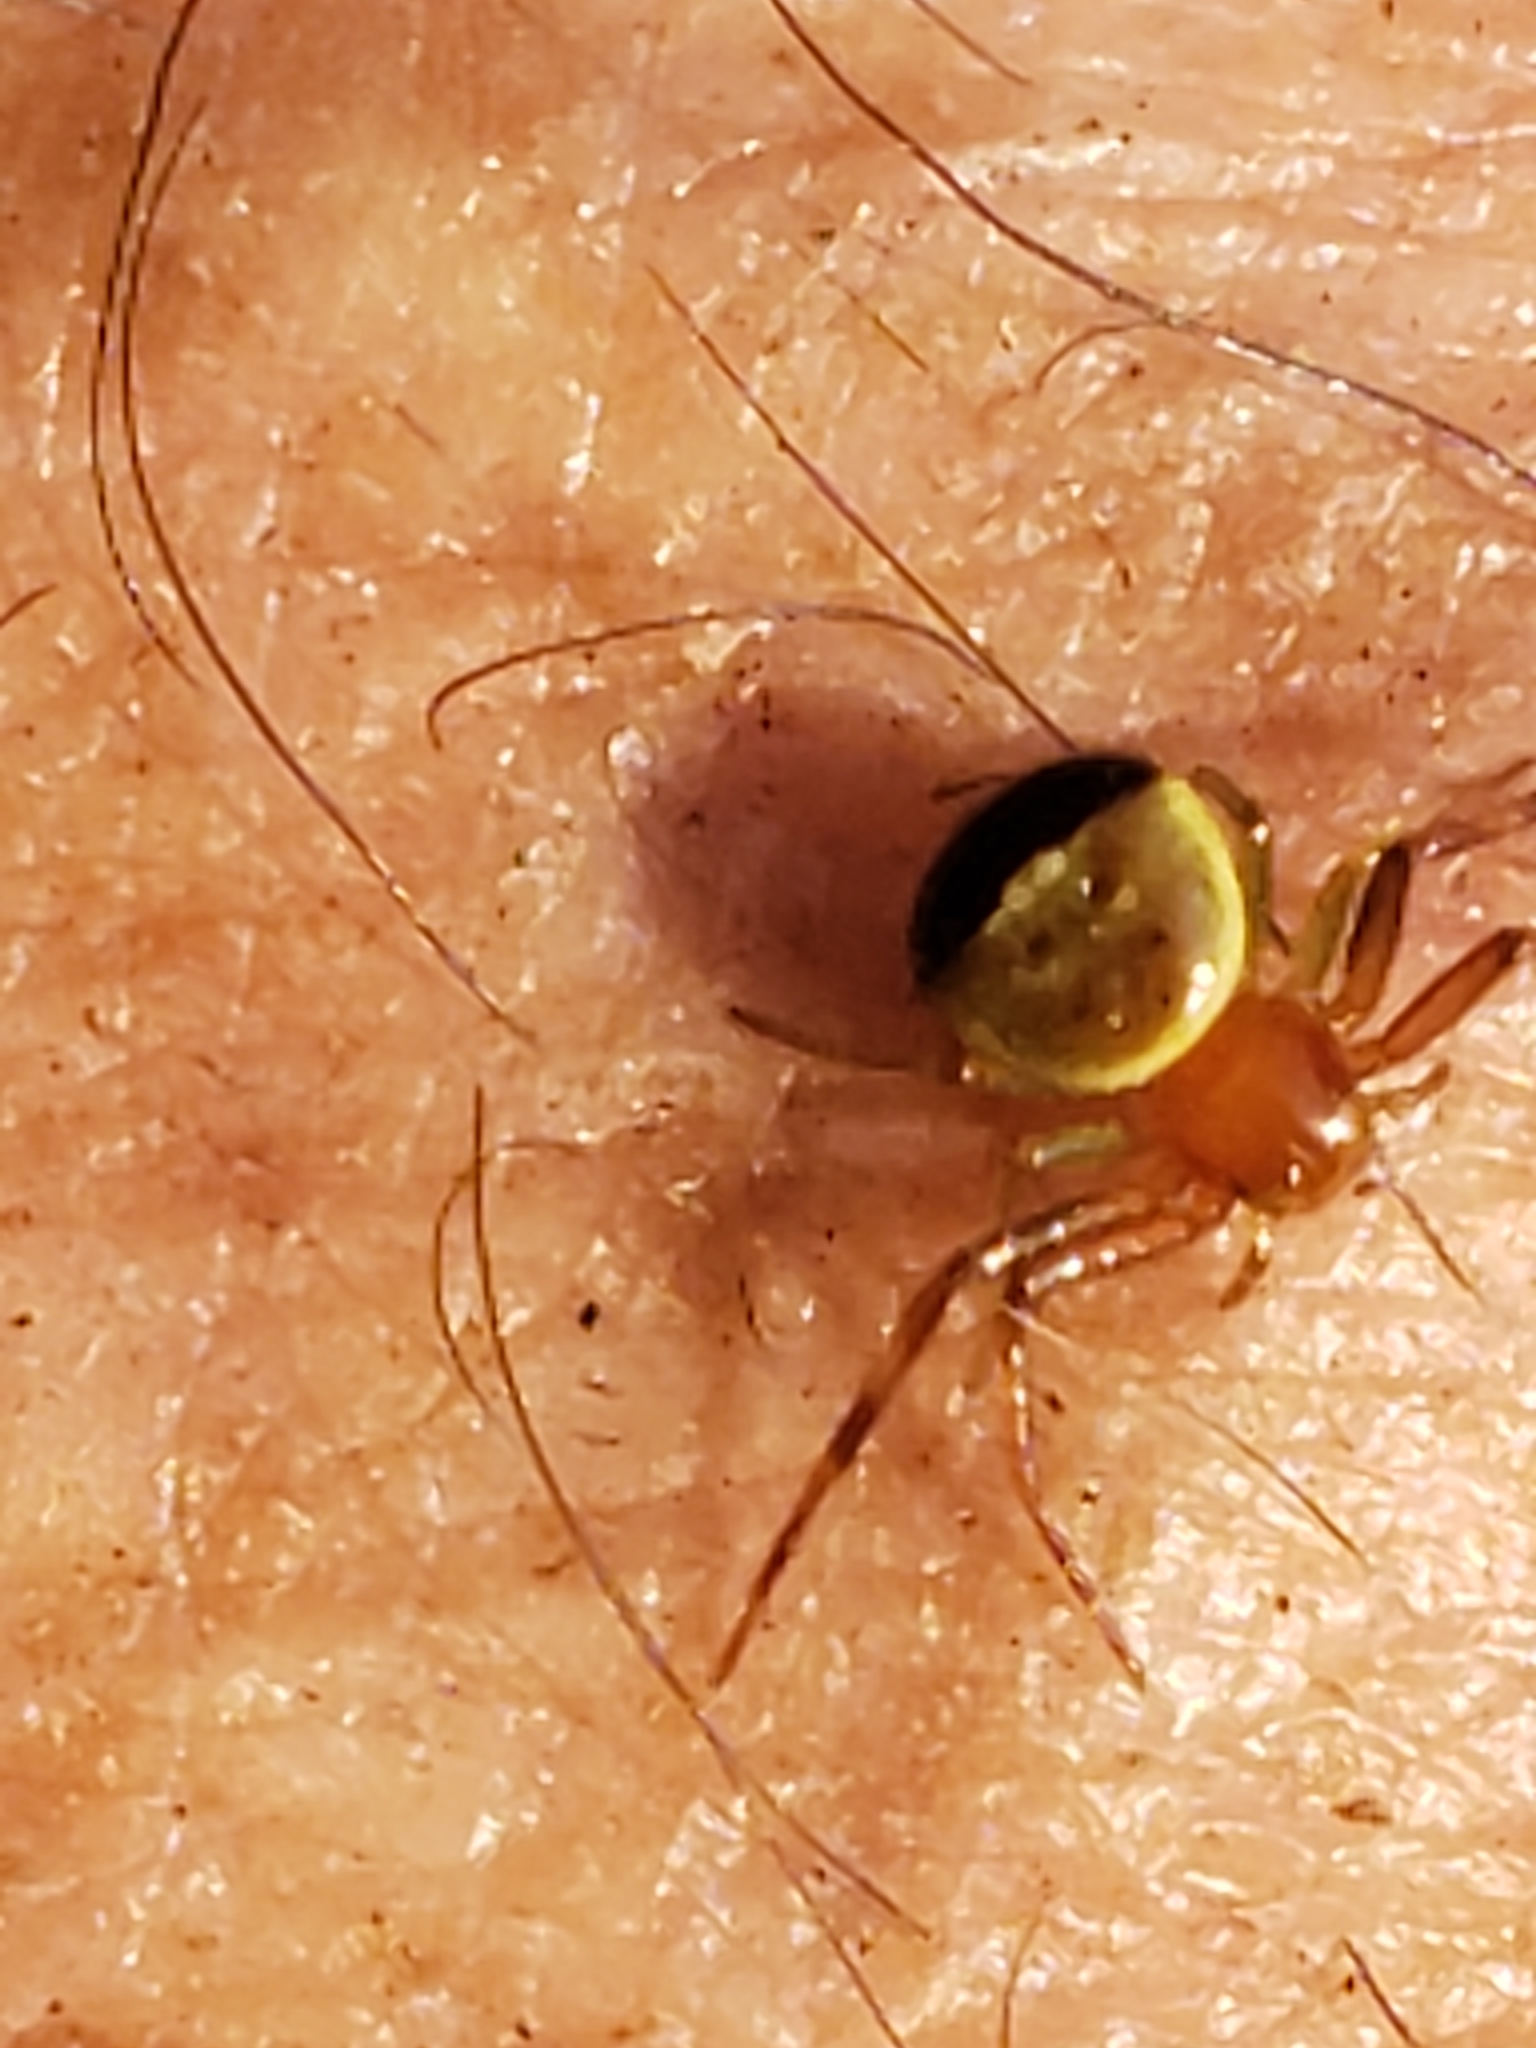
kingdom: Animalia
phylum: Arthropoda
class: Arachnida
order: Araneae
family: Thomisidae
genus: Synema
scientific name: Synema parvulum
